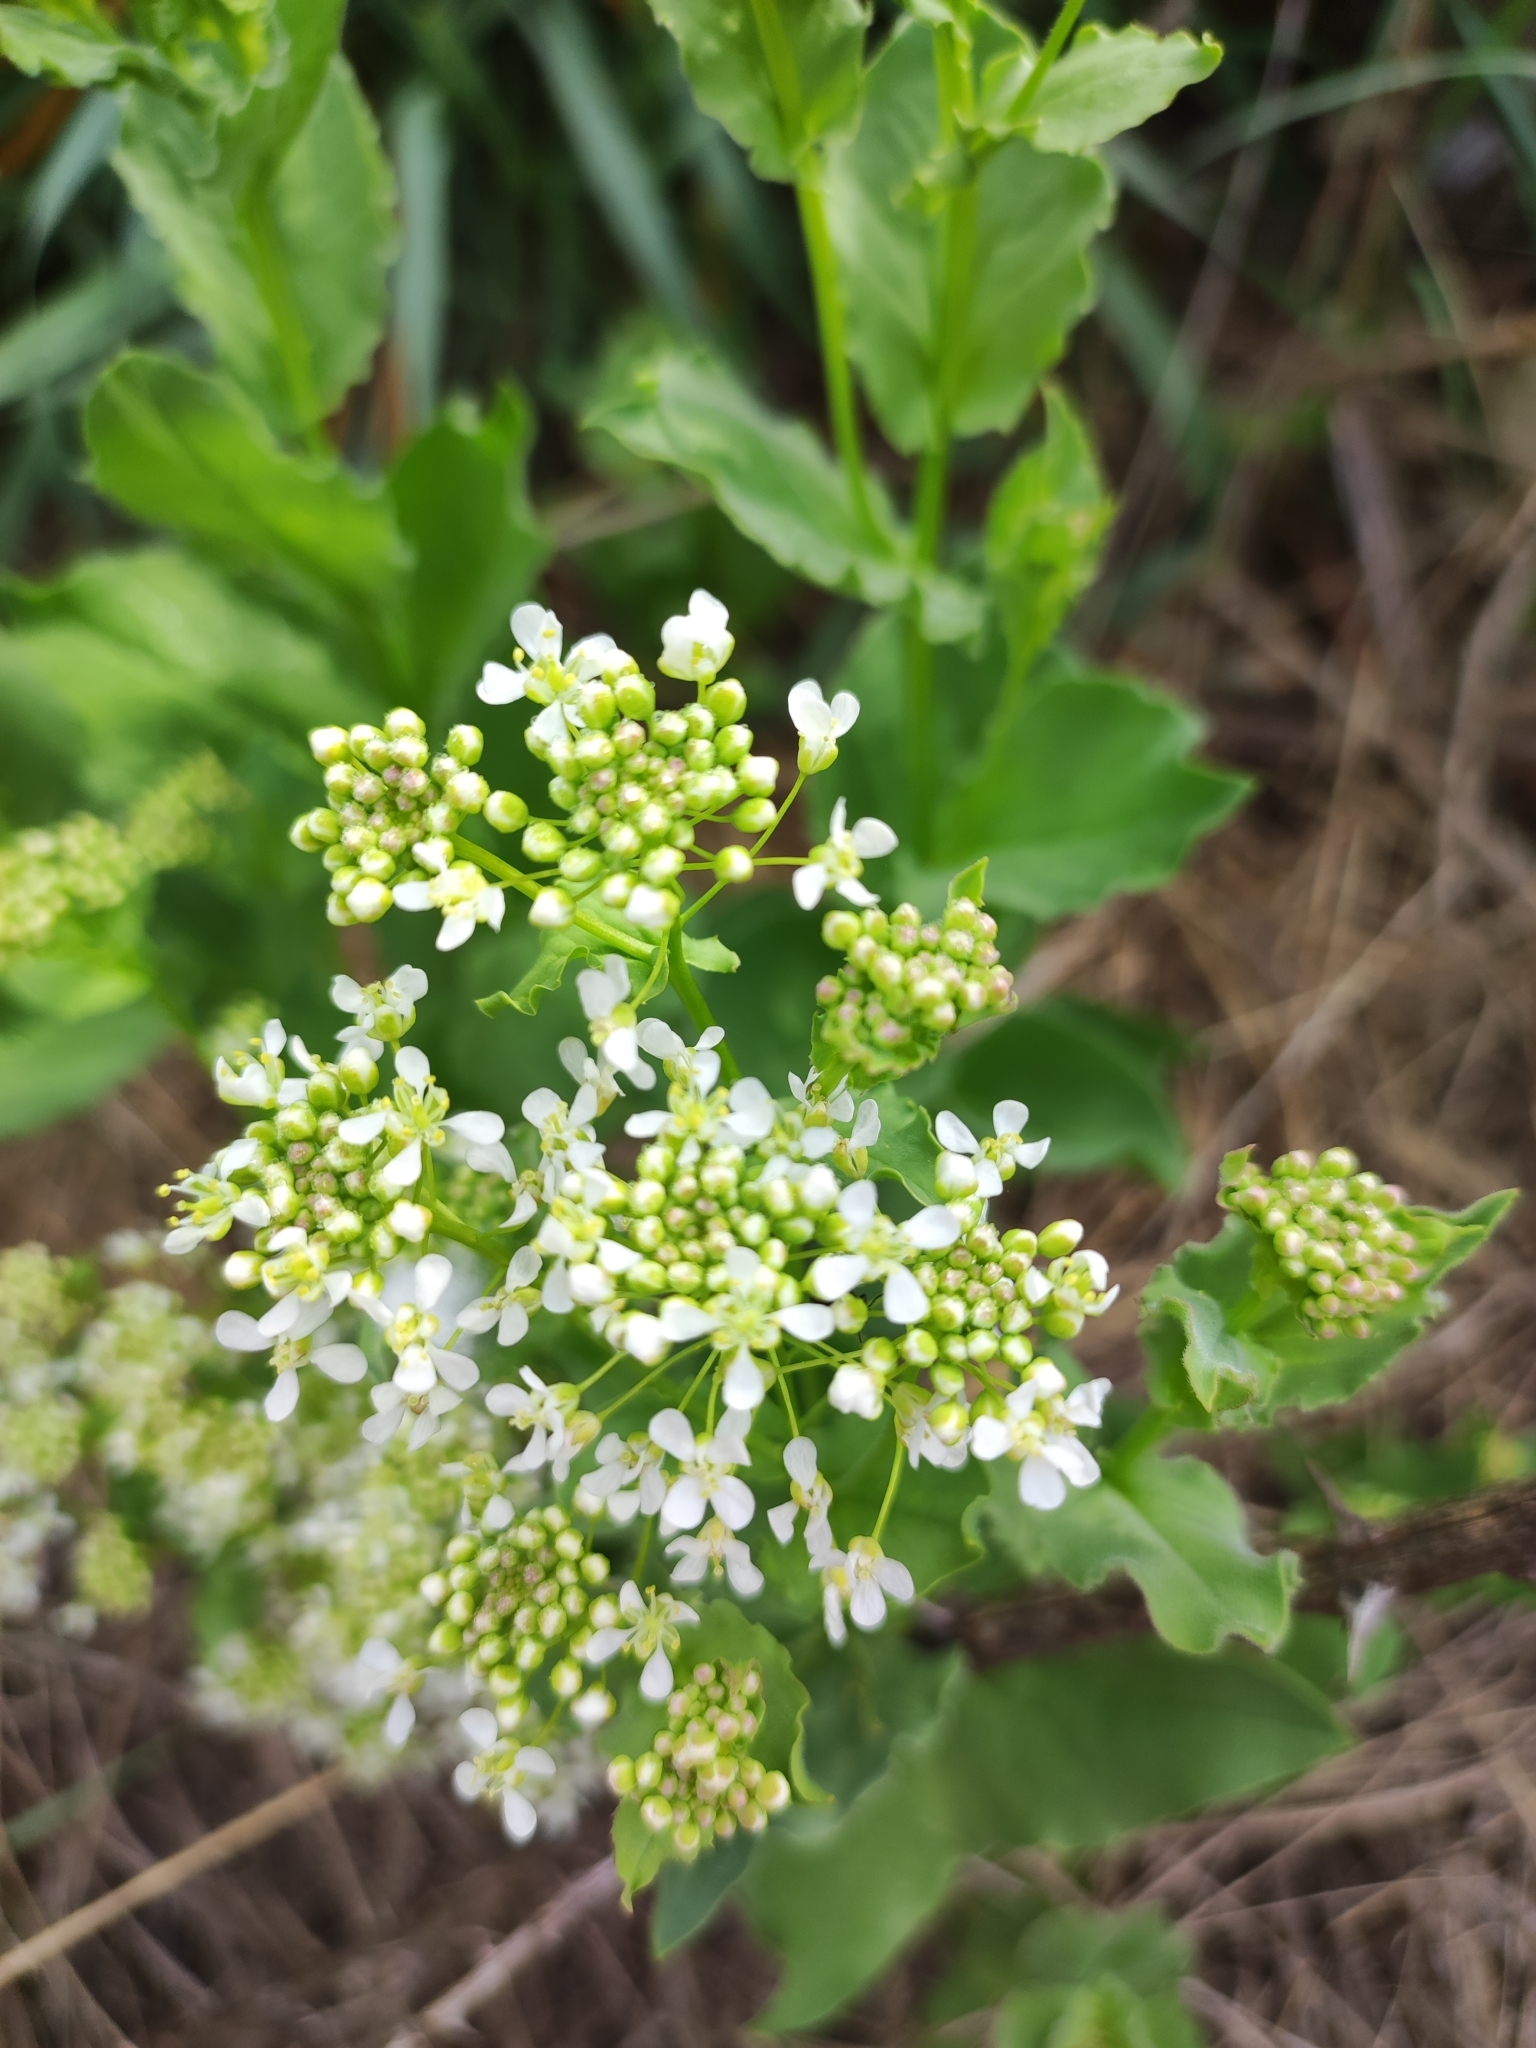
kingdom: Plantae
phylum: Tracheophyta
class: Magnoliopsida
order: Brassicales
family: Brassicaceae
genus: Lepidium
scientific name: Lepidium draba
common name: Hoary cress
